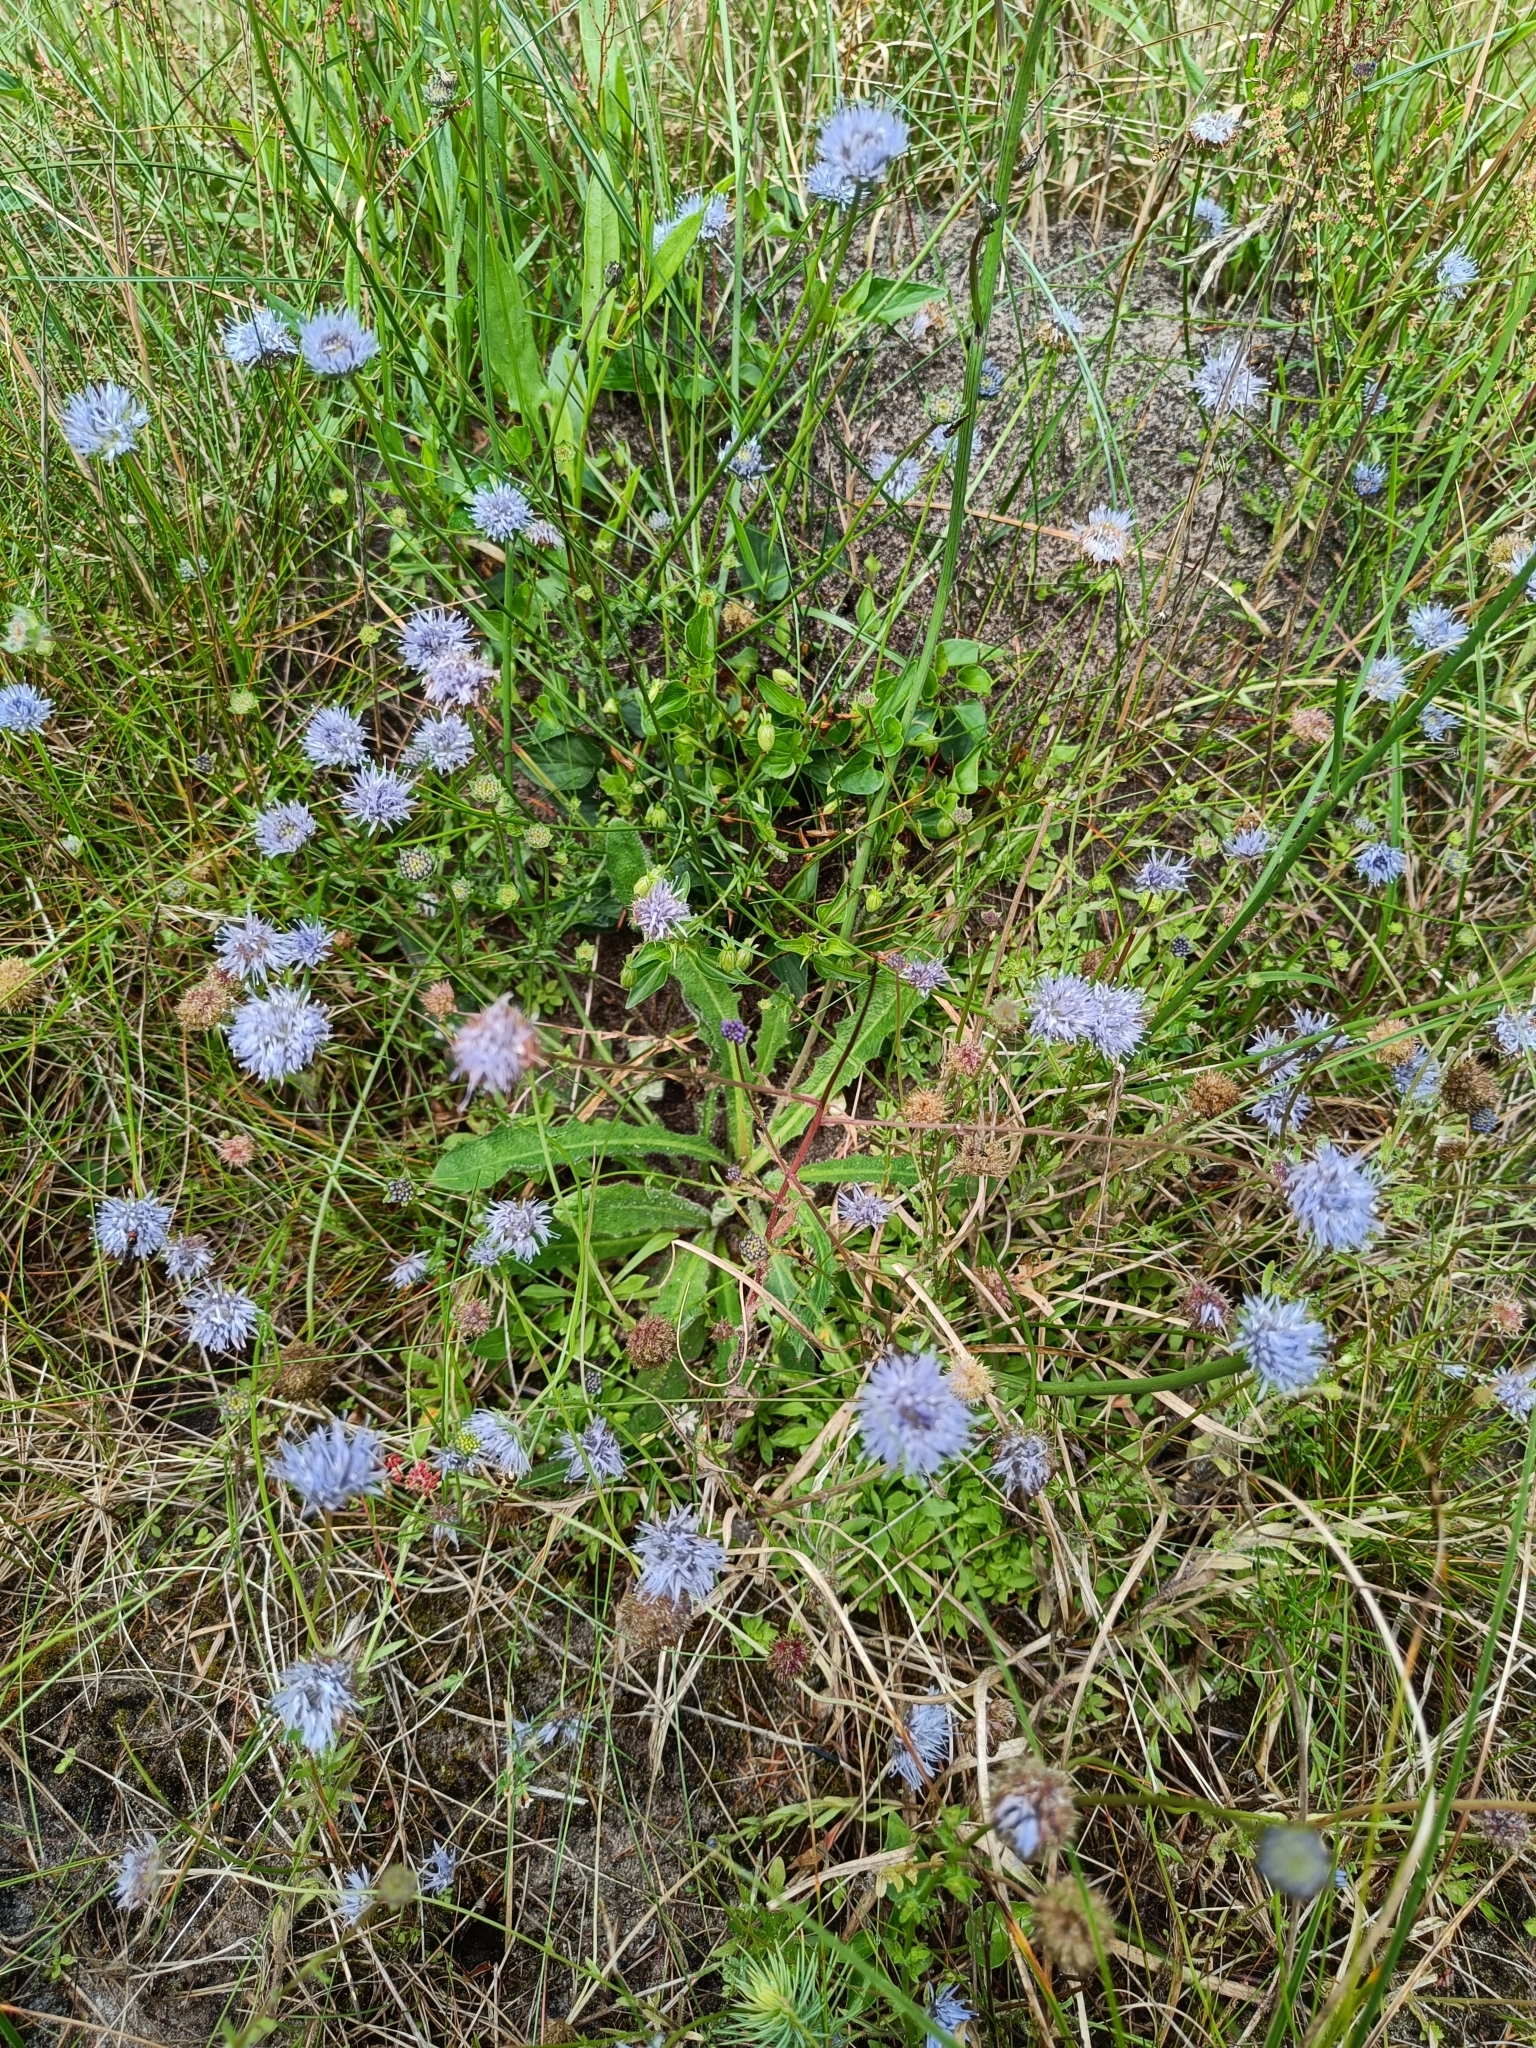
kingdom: Plantae
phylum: Tracheophyta
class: Magnoliopsida
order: Asterales
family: Campanulaceae
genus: Jasione
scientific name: Jasione montana
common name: Sheep's-bit
